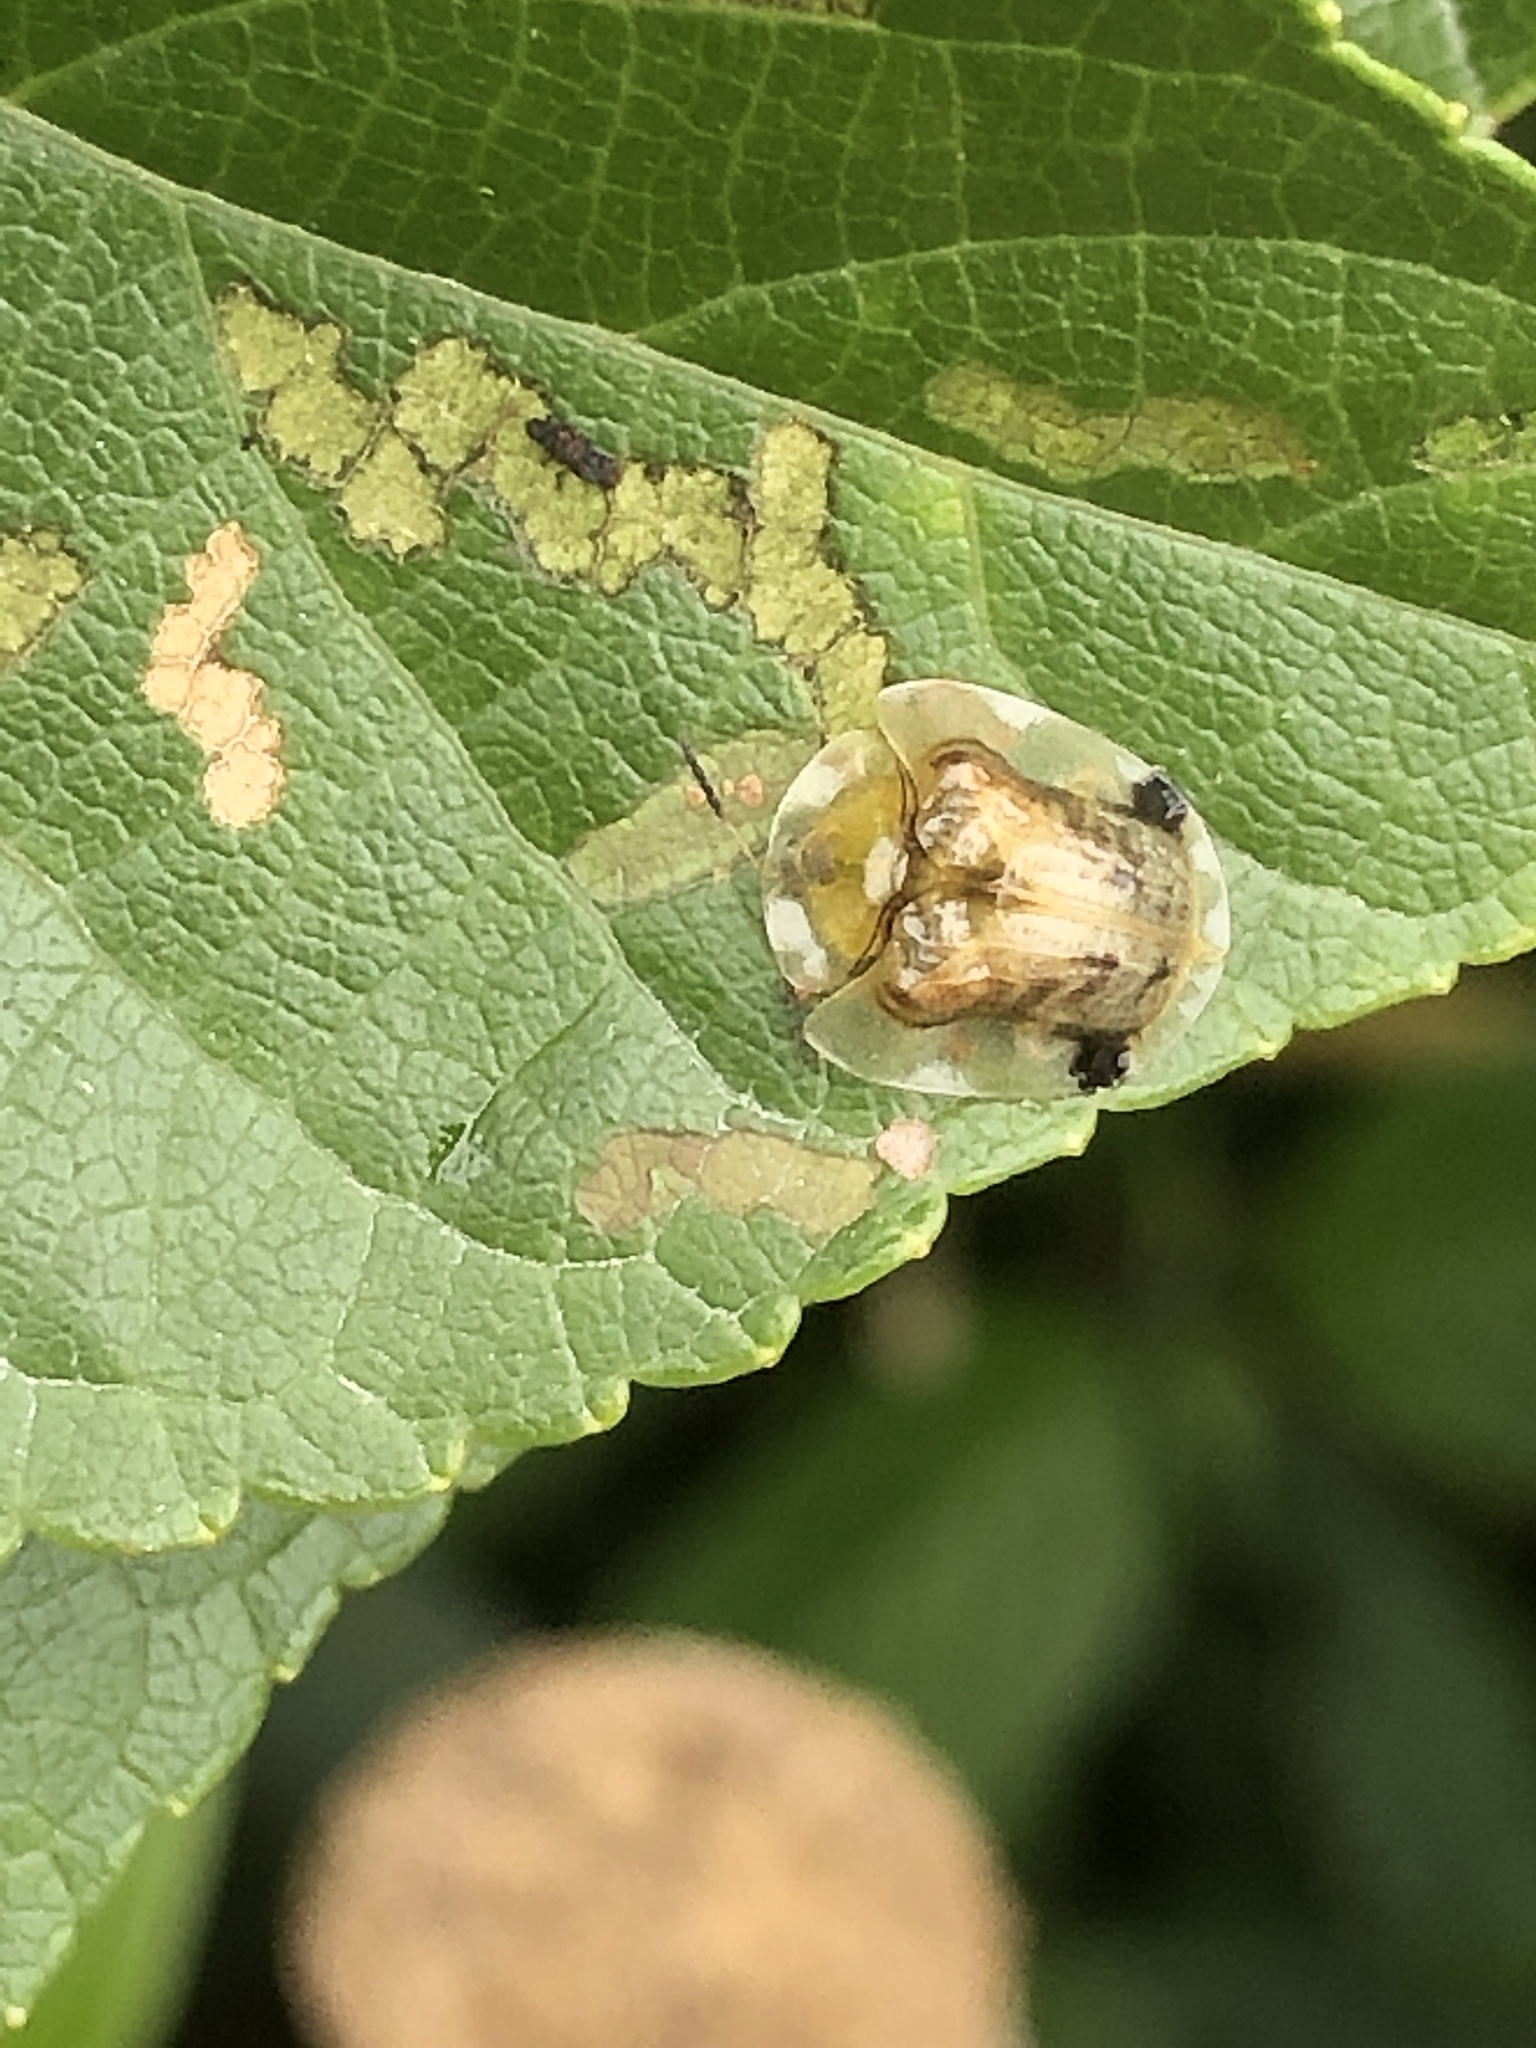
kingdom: Animalia
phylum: Arthropoda
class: Insecta
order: Coleoptera
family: Chrysomelidae
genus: Thlaspida
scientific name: Thlaspida cribrosa
